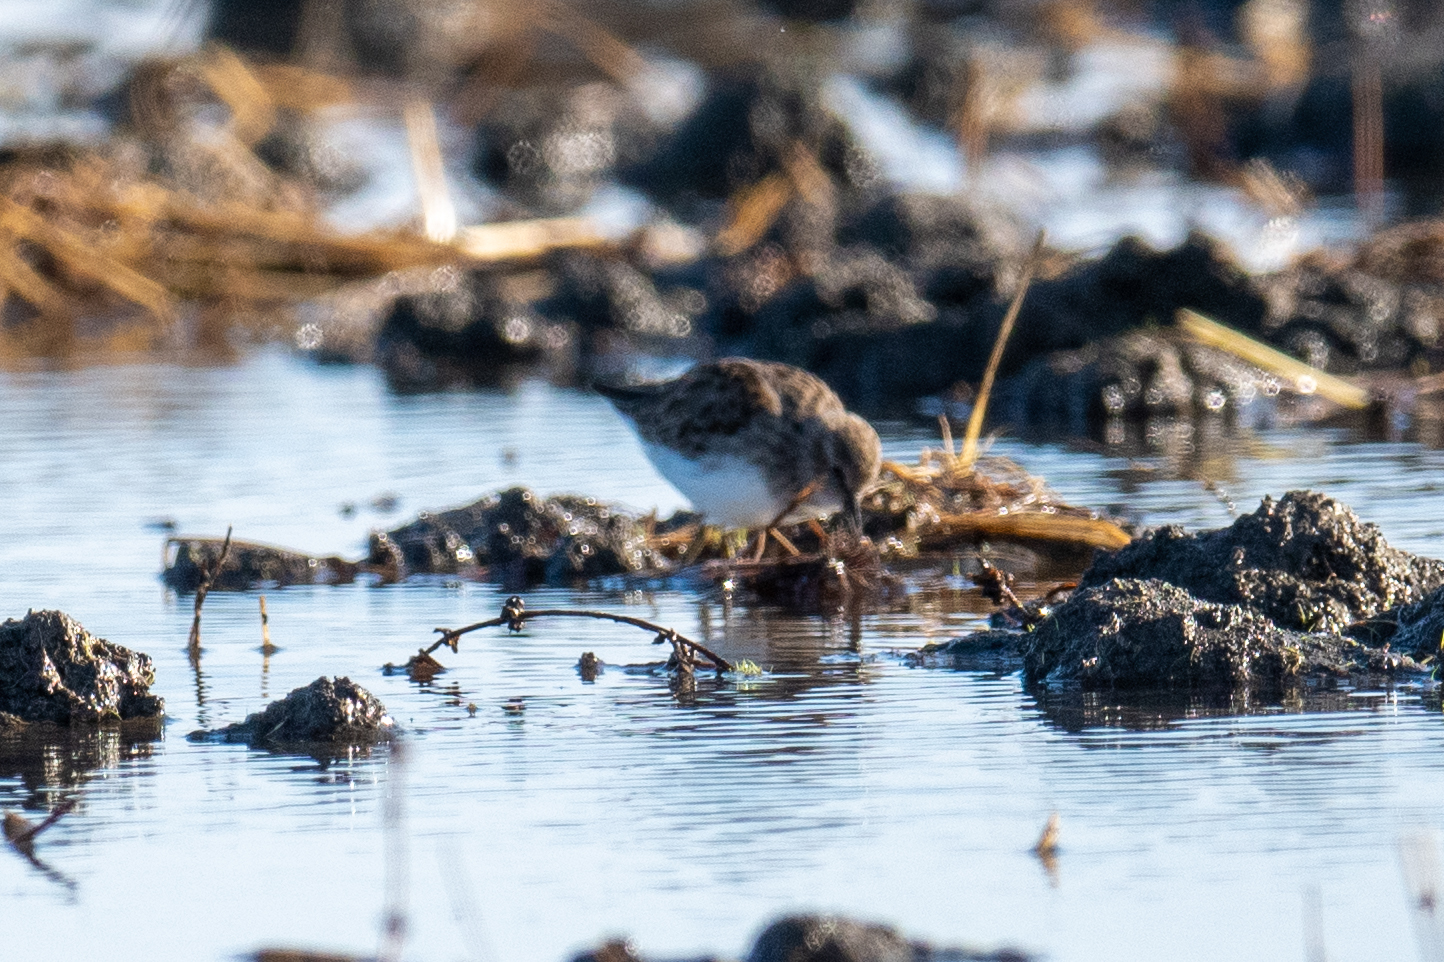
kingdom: Animalia
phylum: Chordata
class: Aves
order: Charadriiformes
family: Scolopacidae
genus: Calidris
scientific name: Calidris minutilla
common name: Least sandpiper
